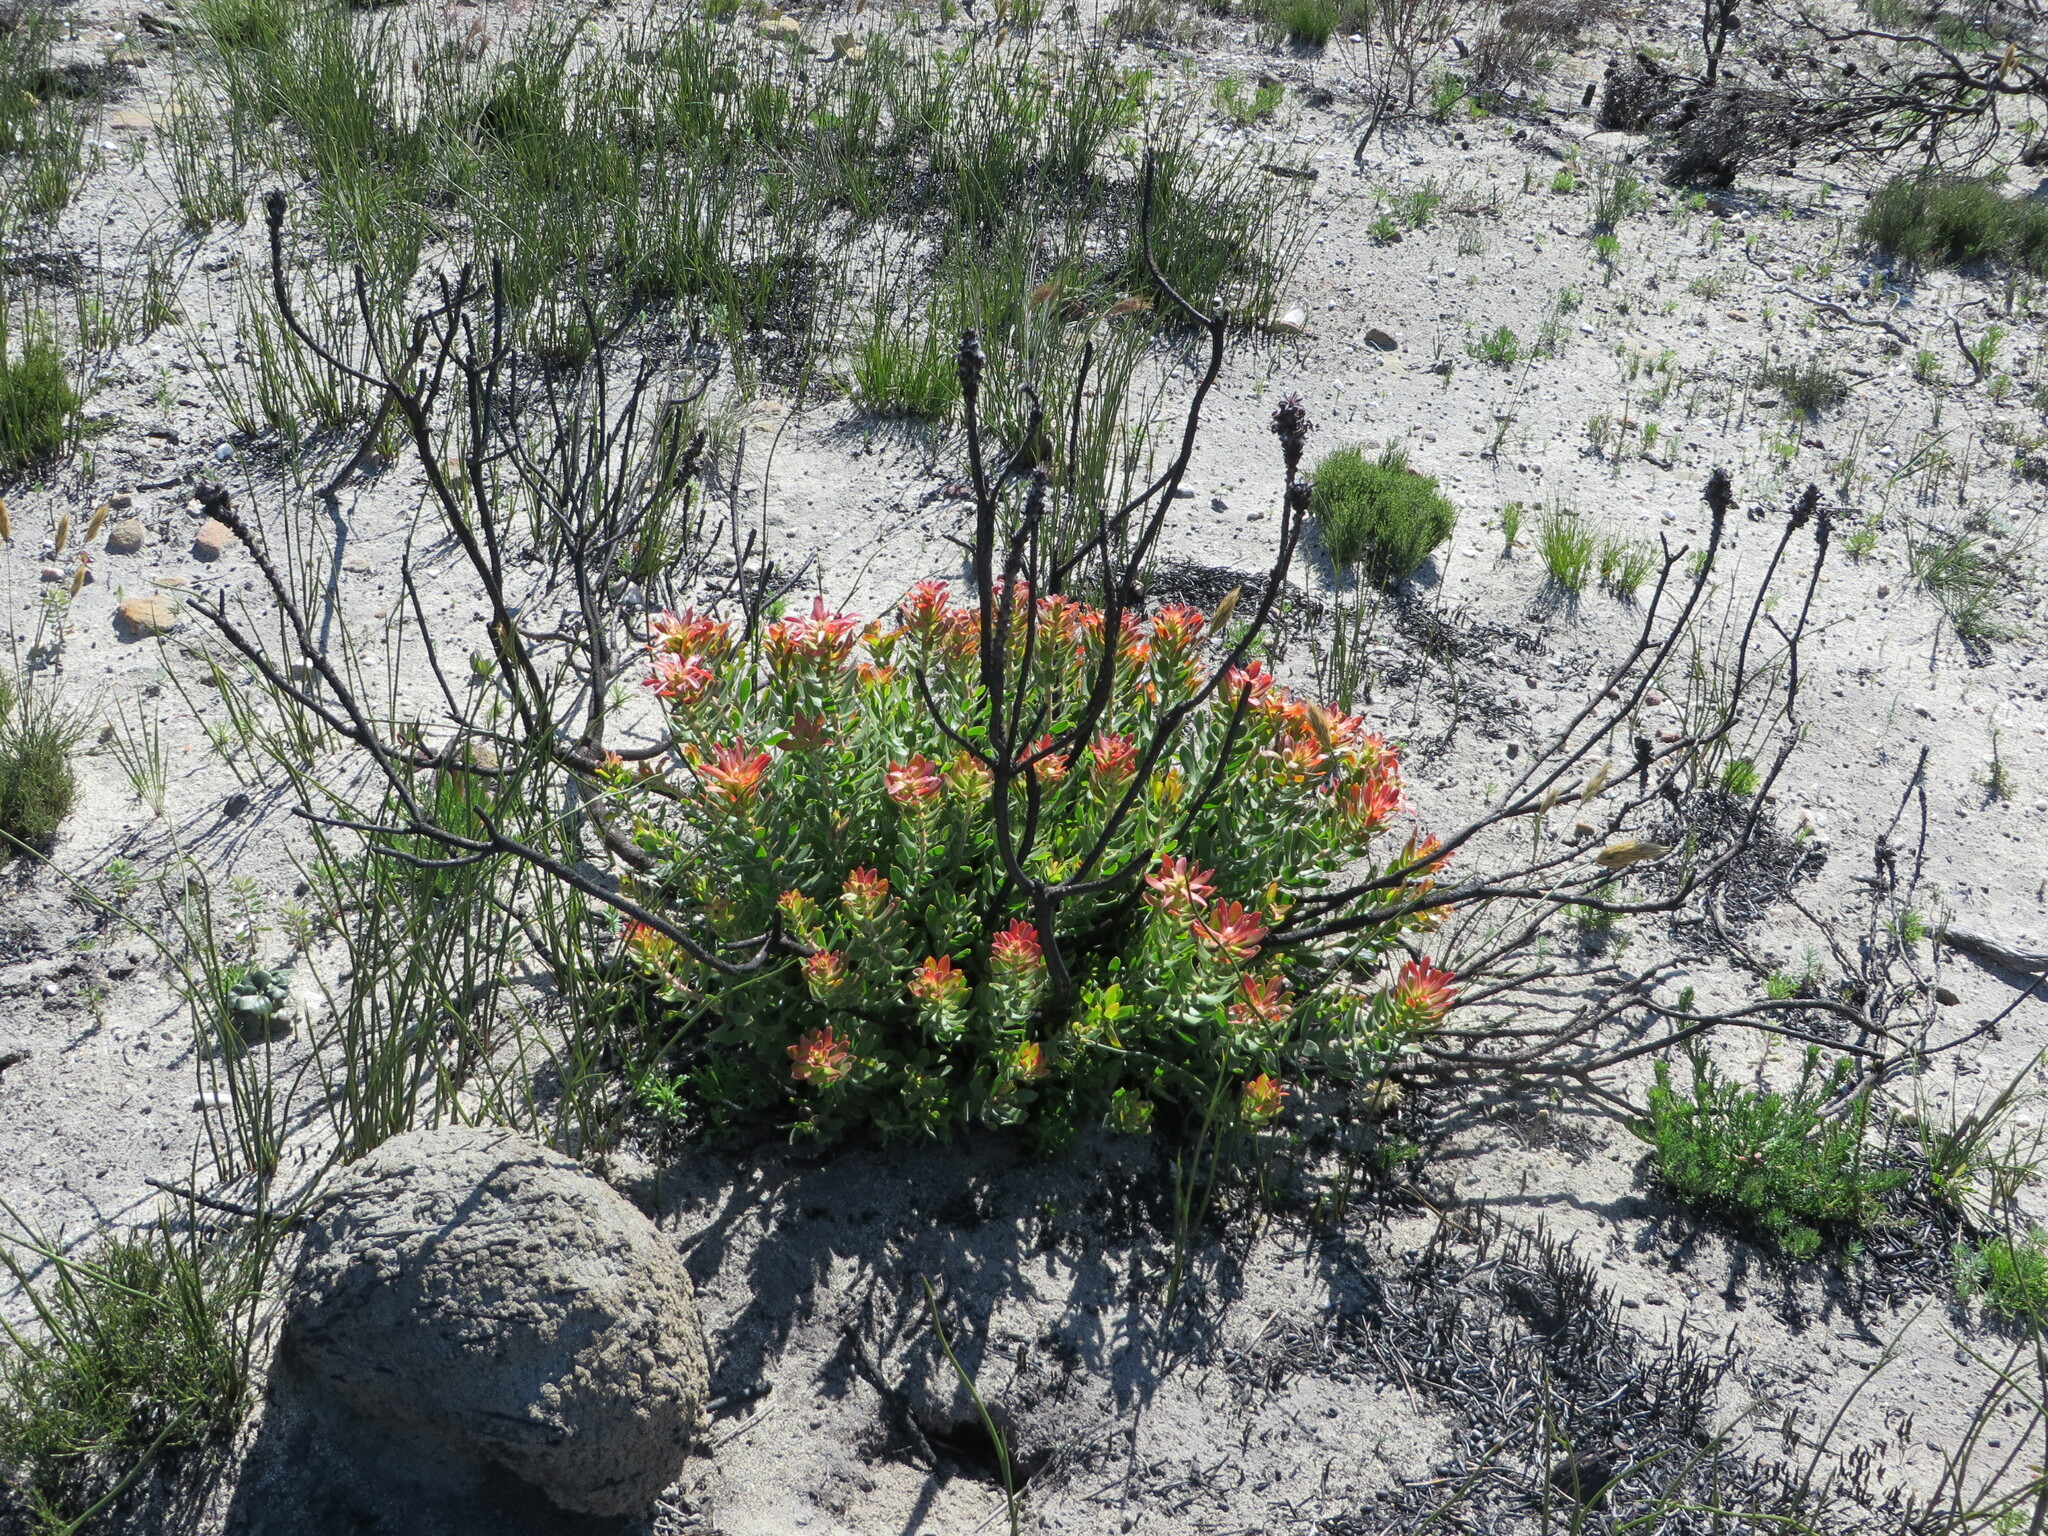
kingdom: Plantae
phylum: Tracheophyta
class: Magnoliopsida
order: Proteales
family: Proteaceae
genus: Mimetes
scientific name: Mimetes cucullatus
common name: Common pagoda
